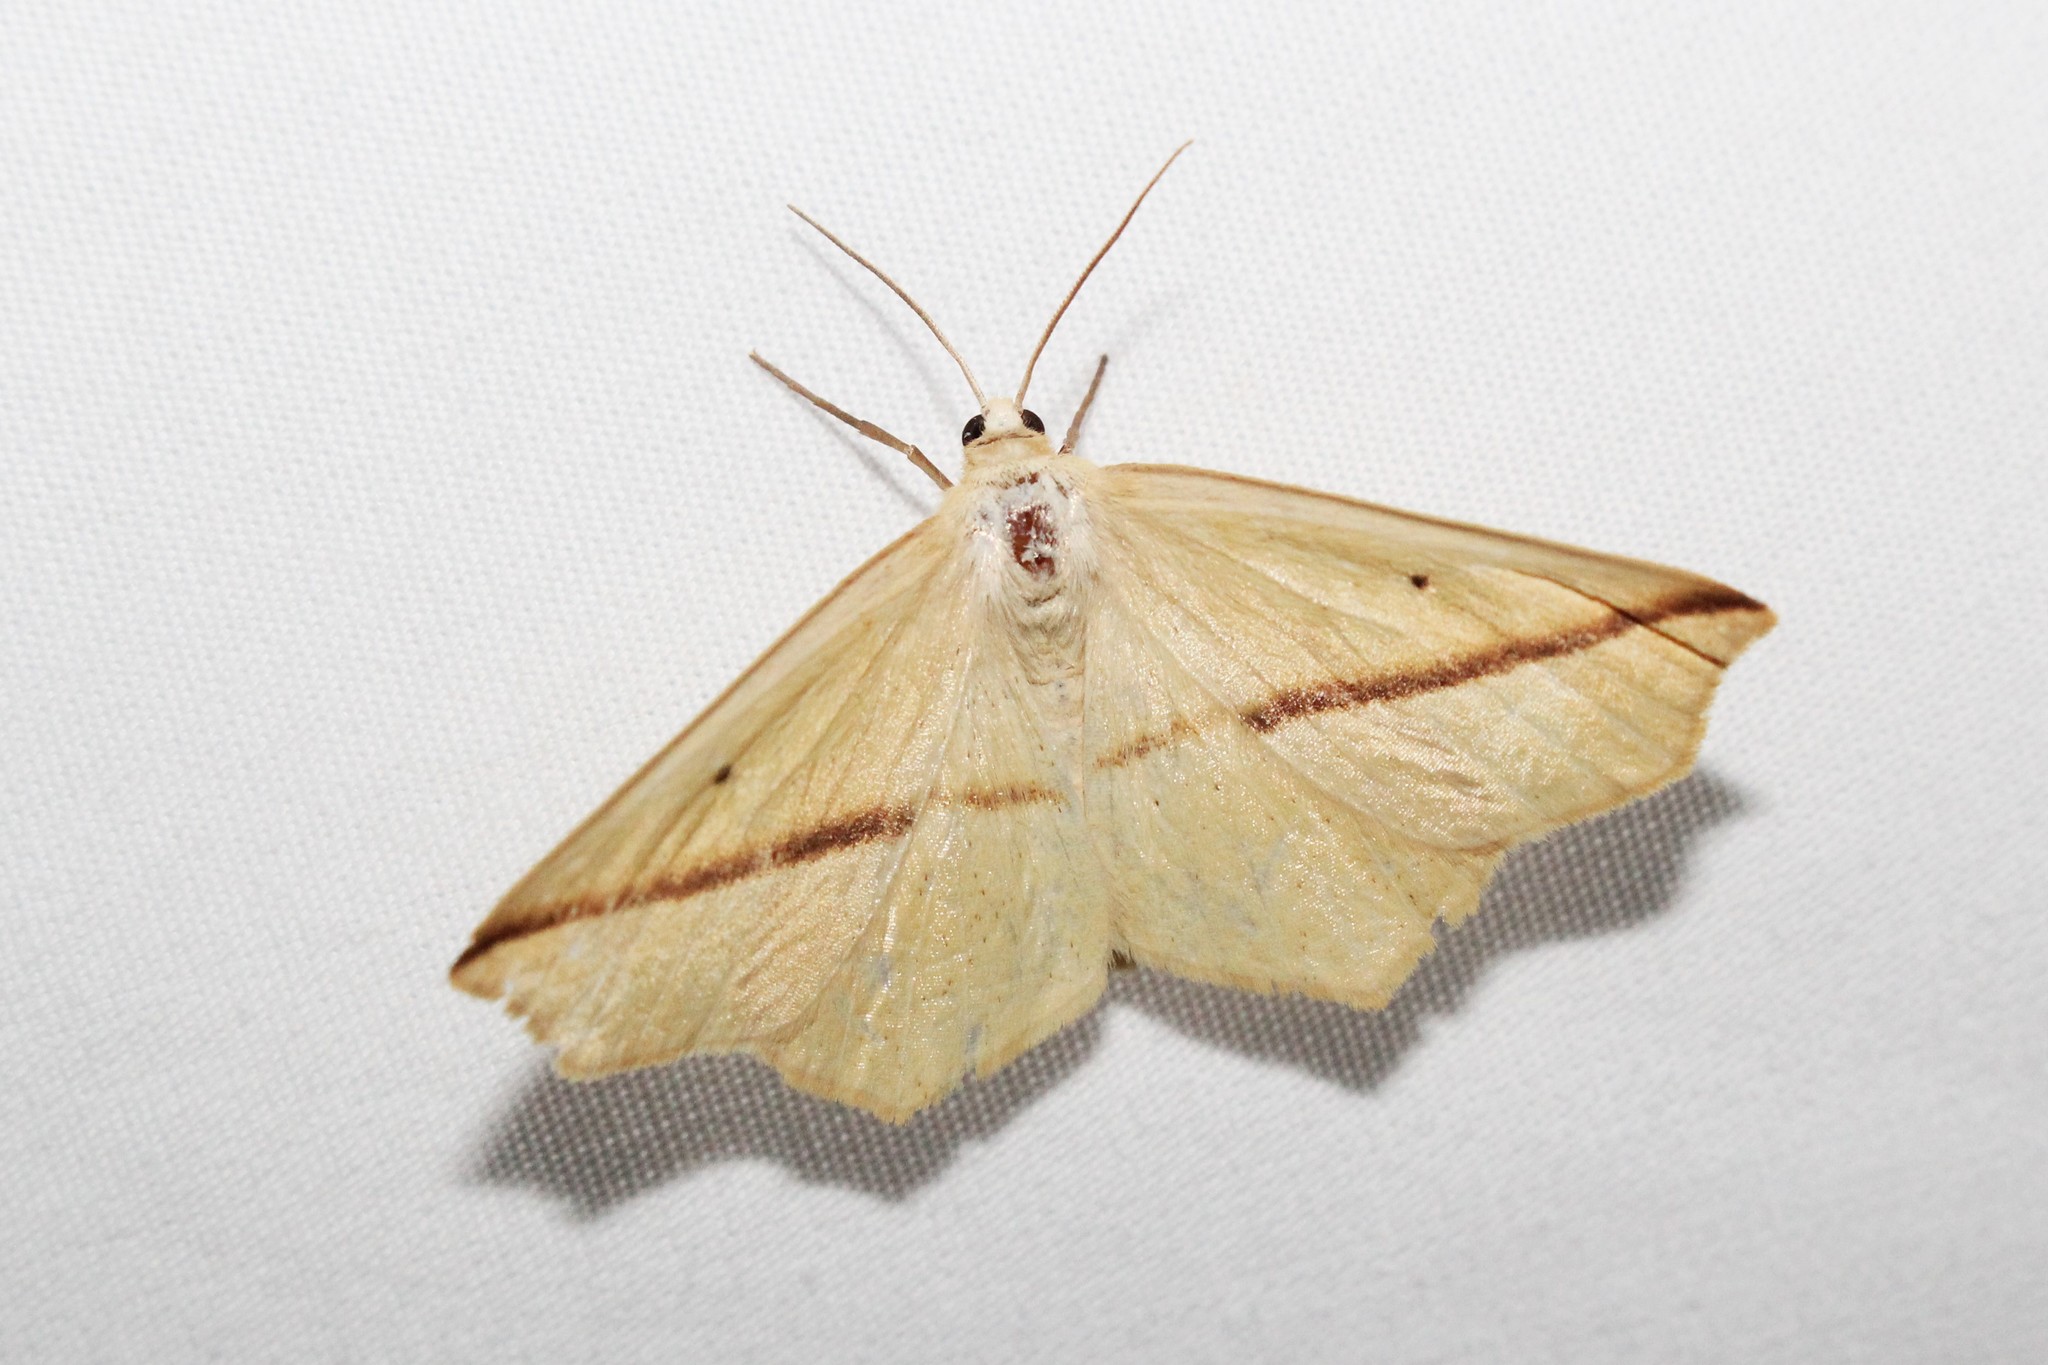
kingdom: Animalia
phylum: Arthropoda
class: Insecta
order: Lepidoptera
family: Geometridae
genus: Tetracis
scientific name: Tetracis crocallata
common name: Yellow slant-line
